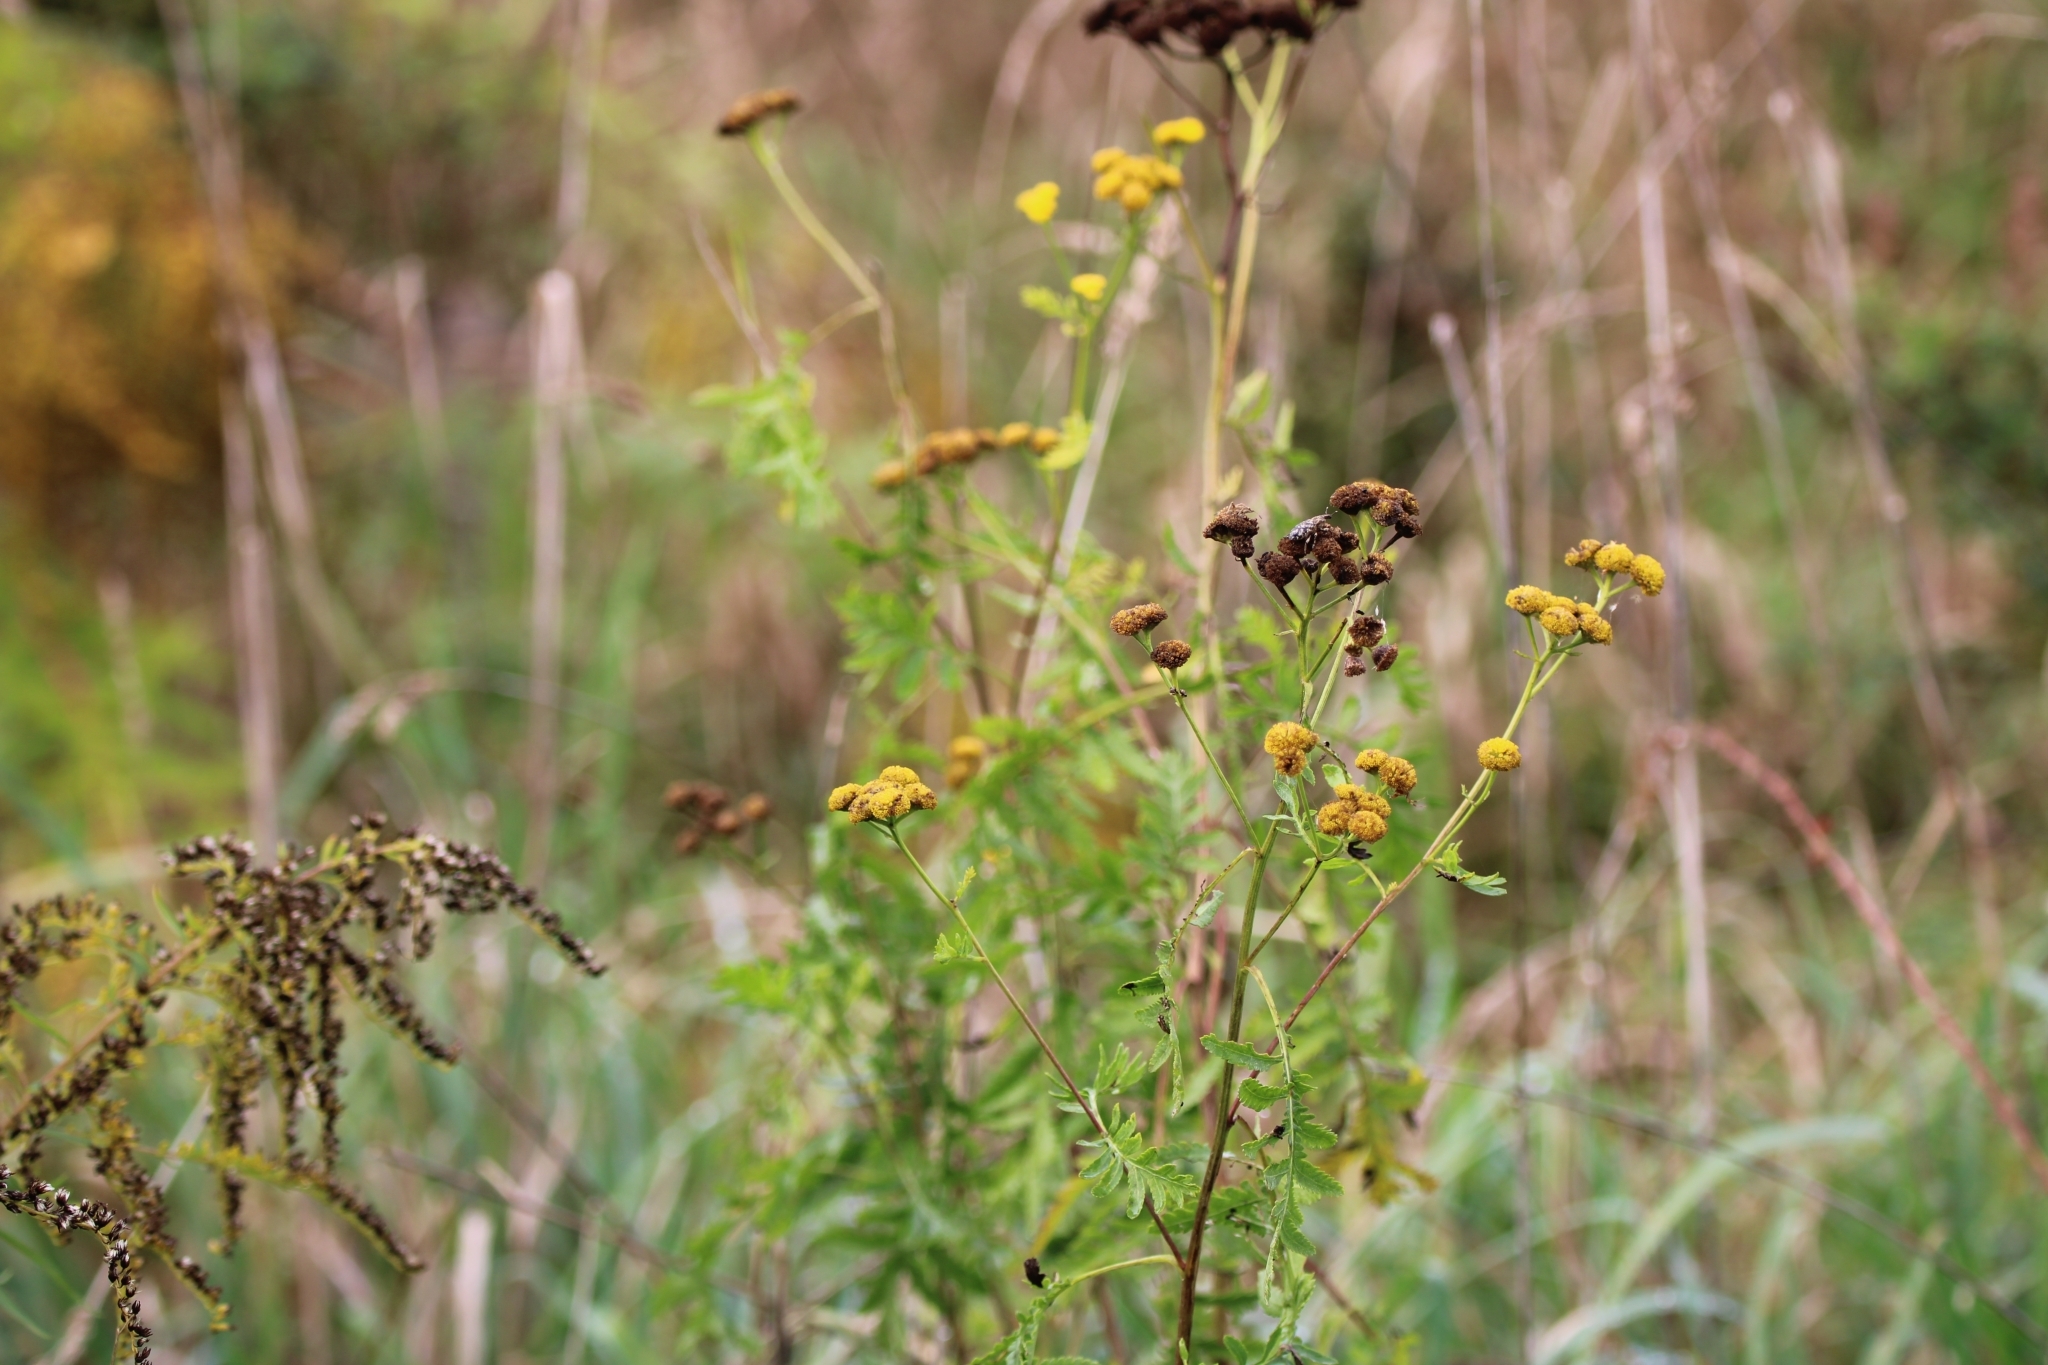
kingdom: Plantae
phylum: Tracheophyta
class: Magnoliopsida
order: Asterales
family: Asteraceae
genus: Tanacetum
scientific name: Tanacetum vulgare
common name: Common tansy
